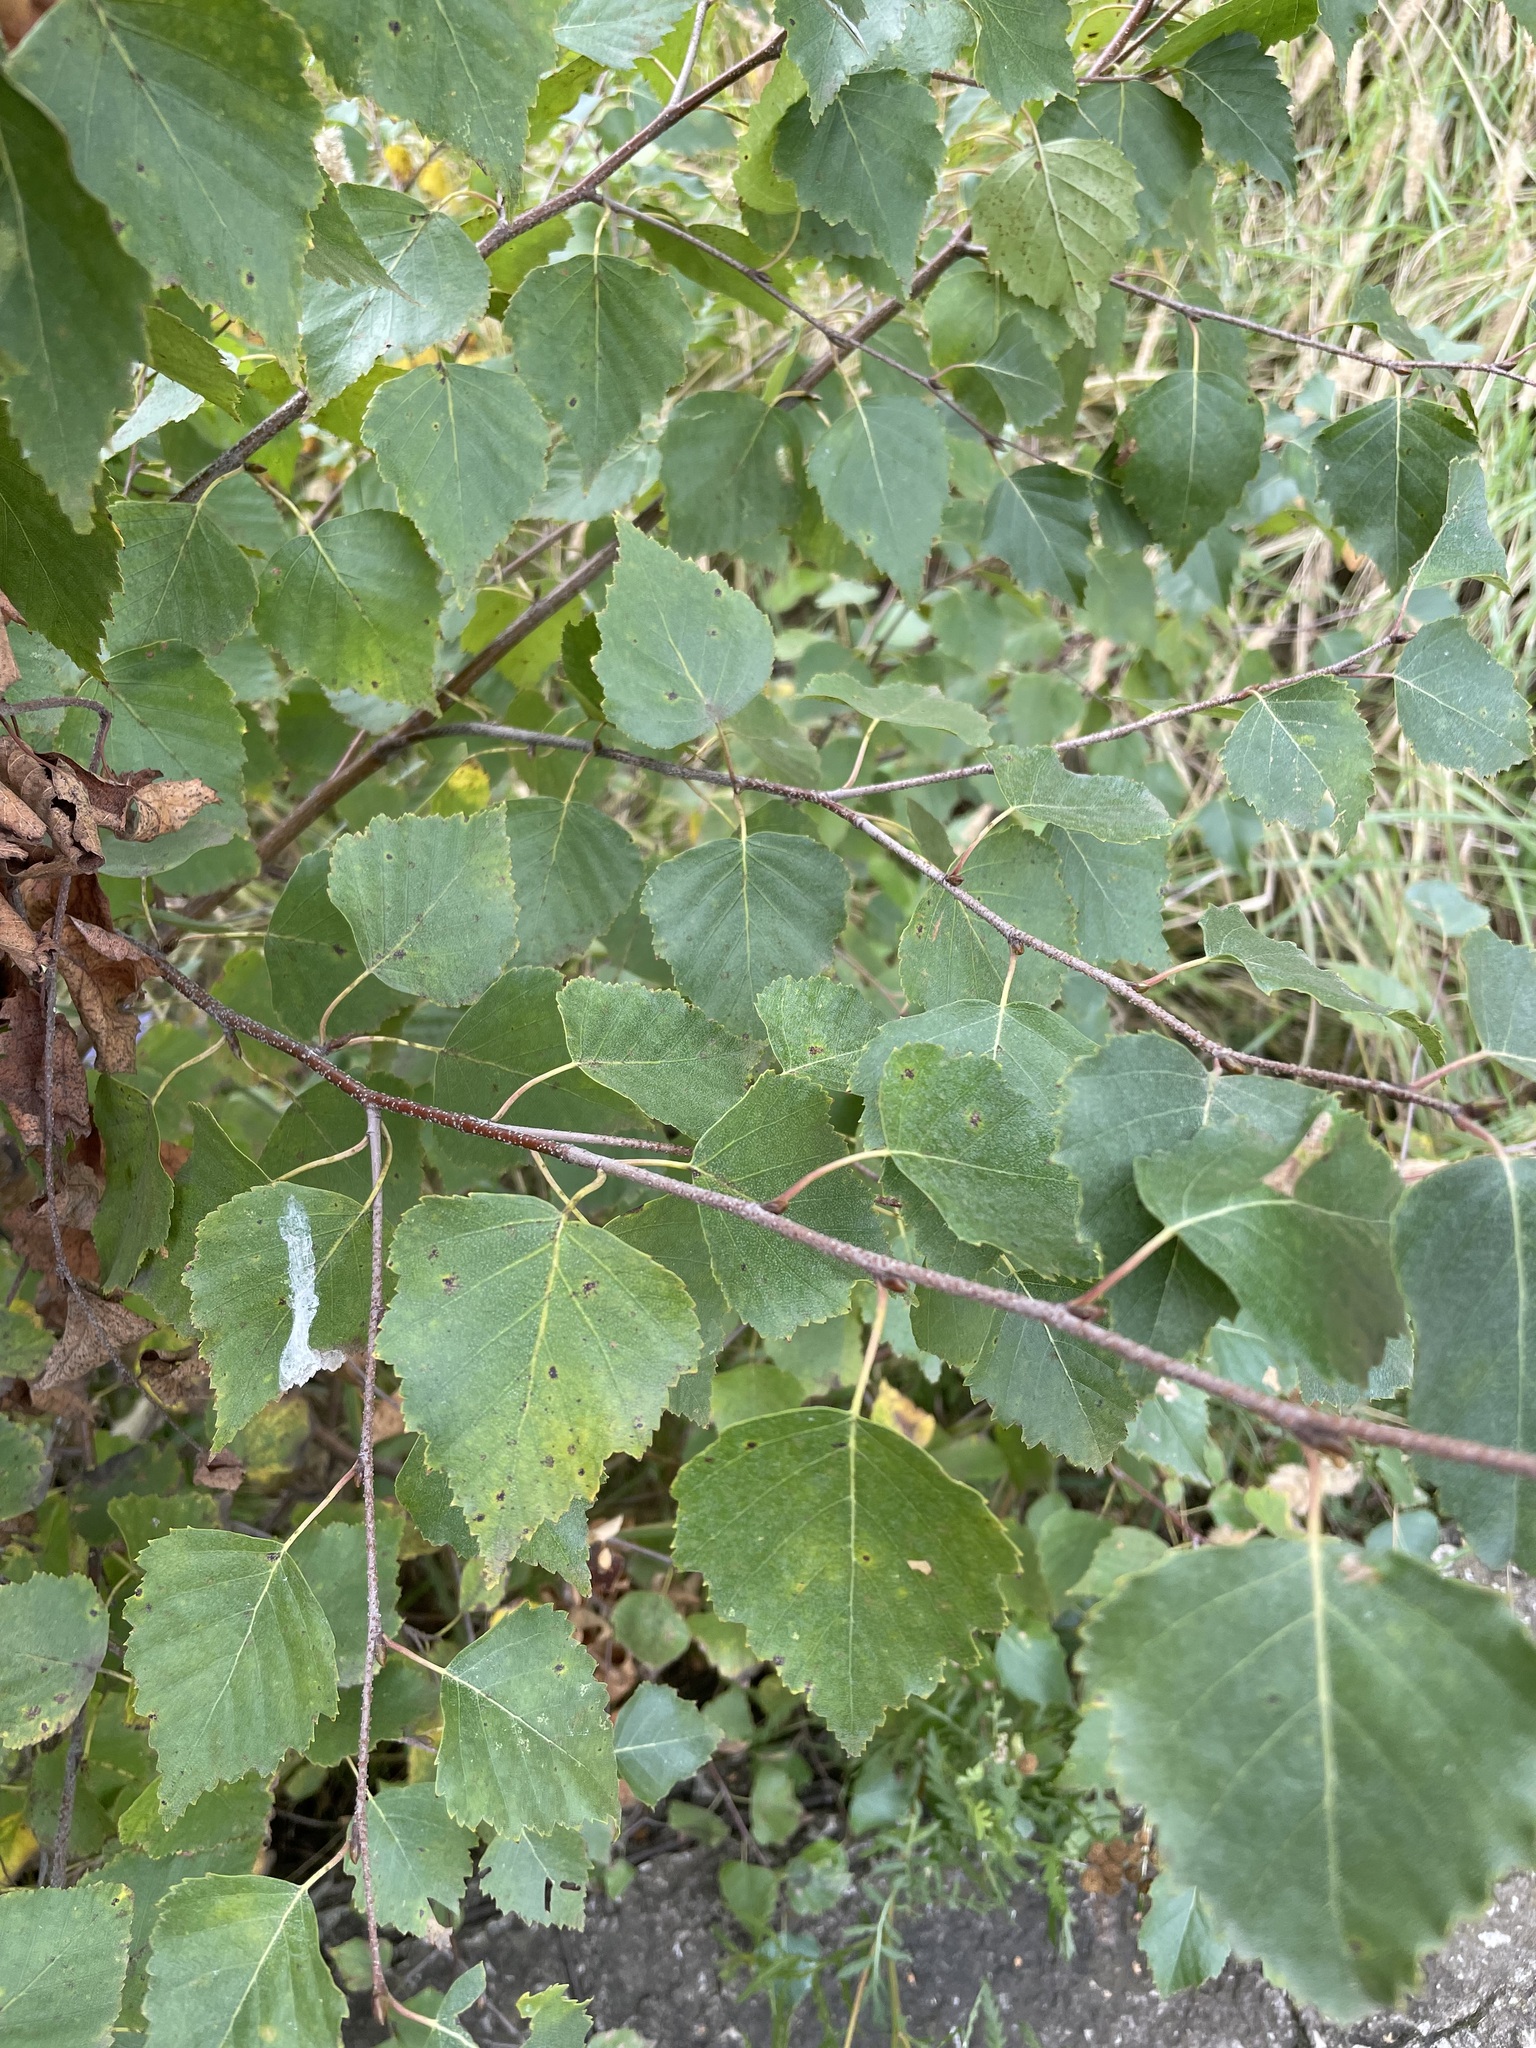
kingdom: Plantae
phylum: Tracheophyta
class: Magnoliopsida
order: Fagales
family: Betulaceae
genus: Betula
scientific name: Betula pendula
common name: Silver birch
